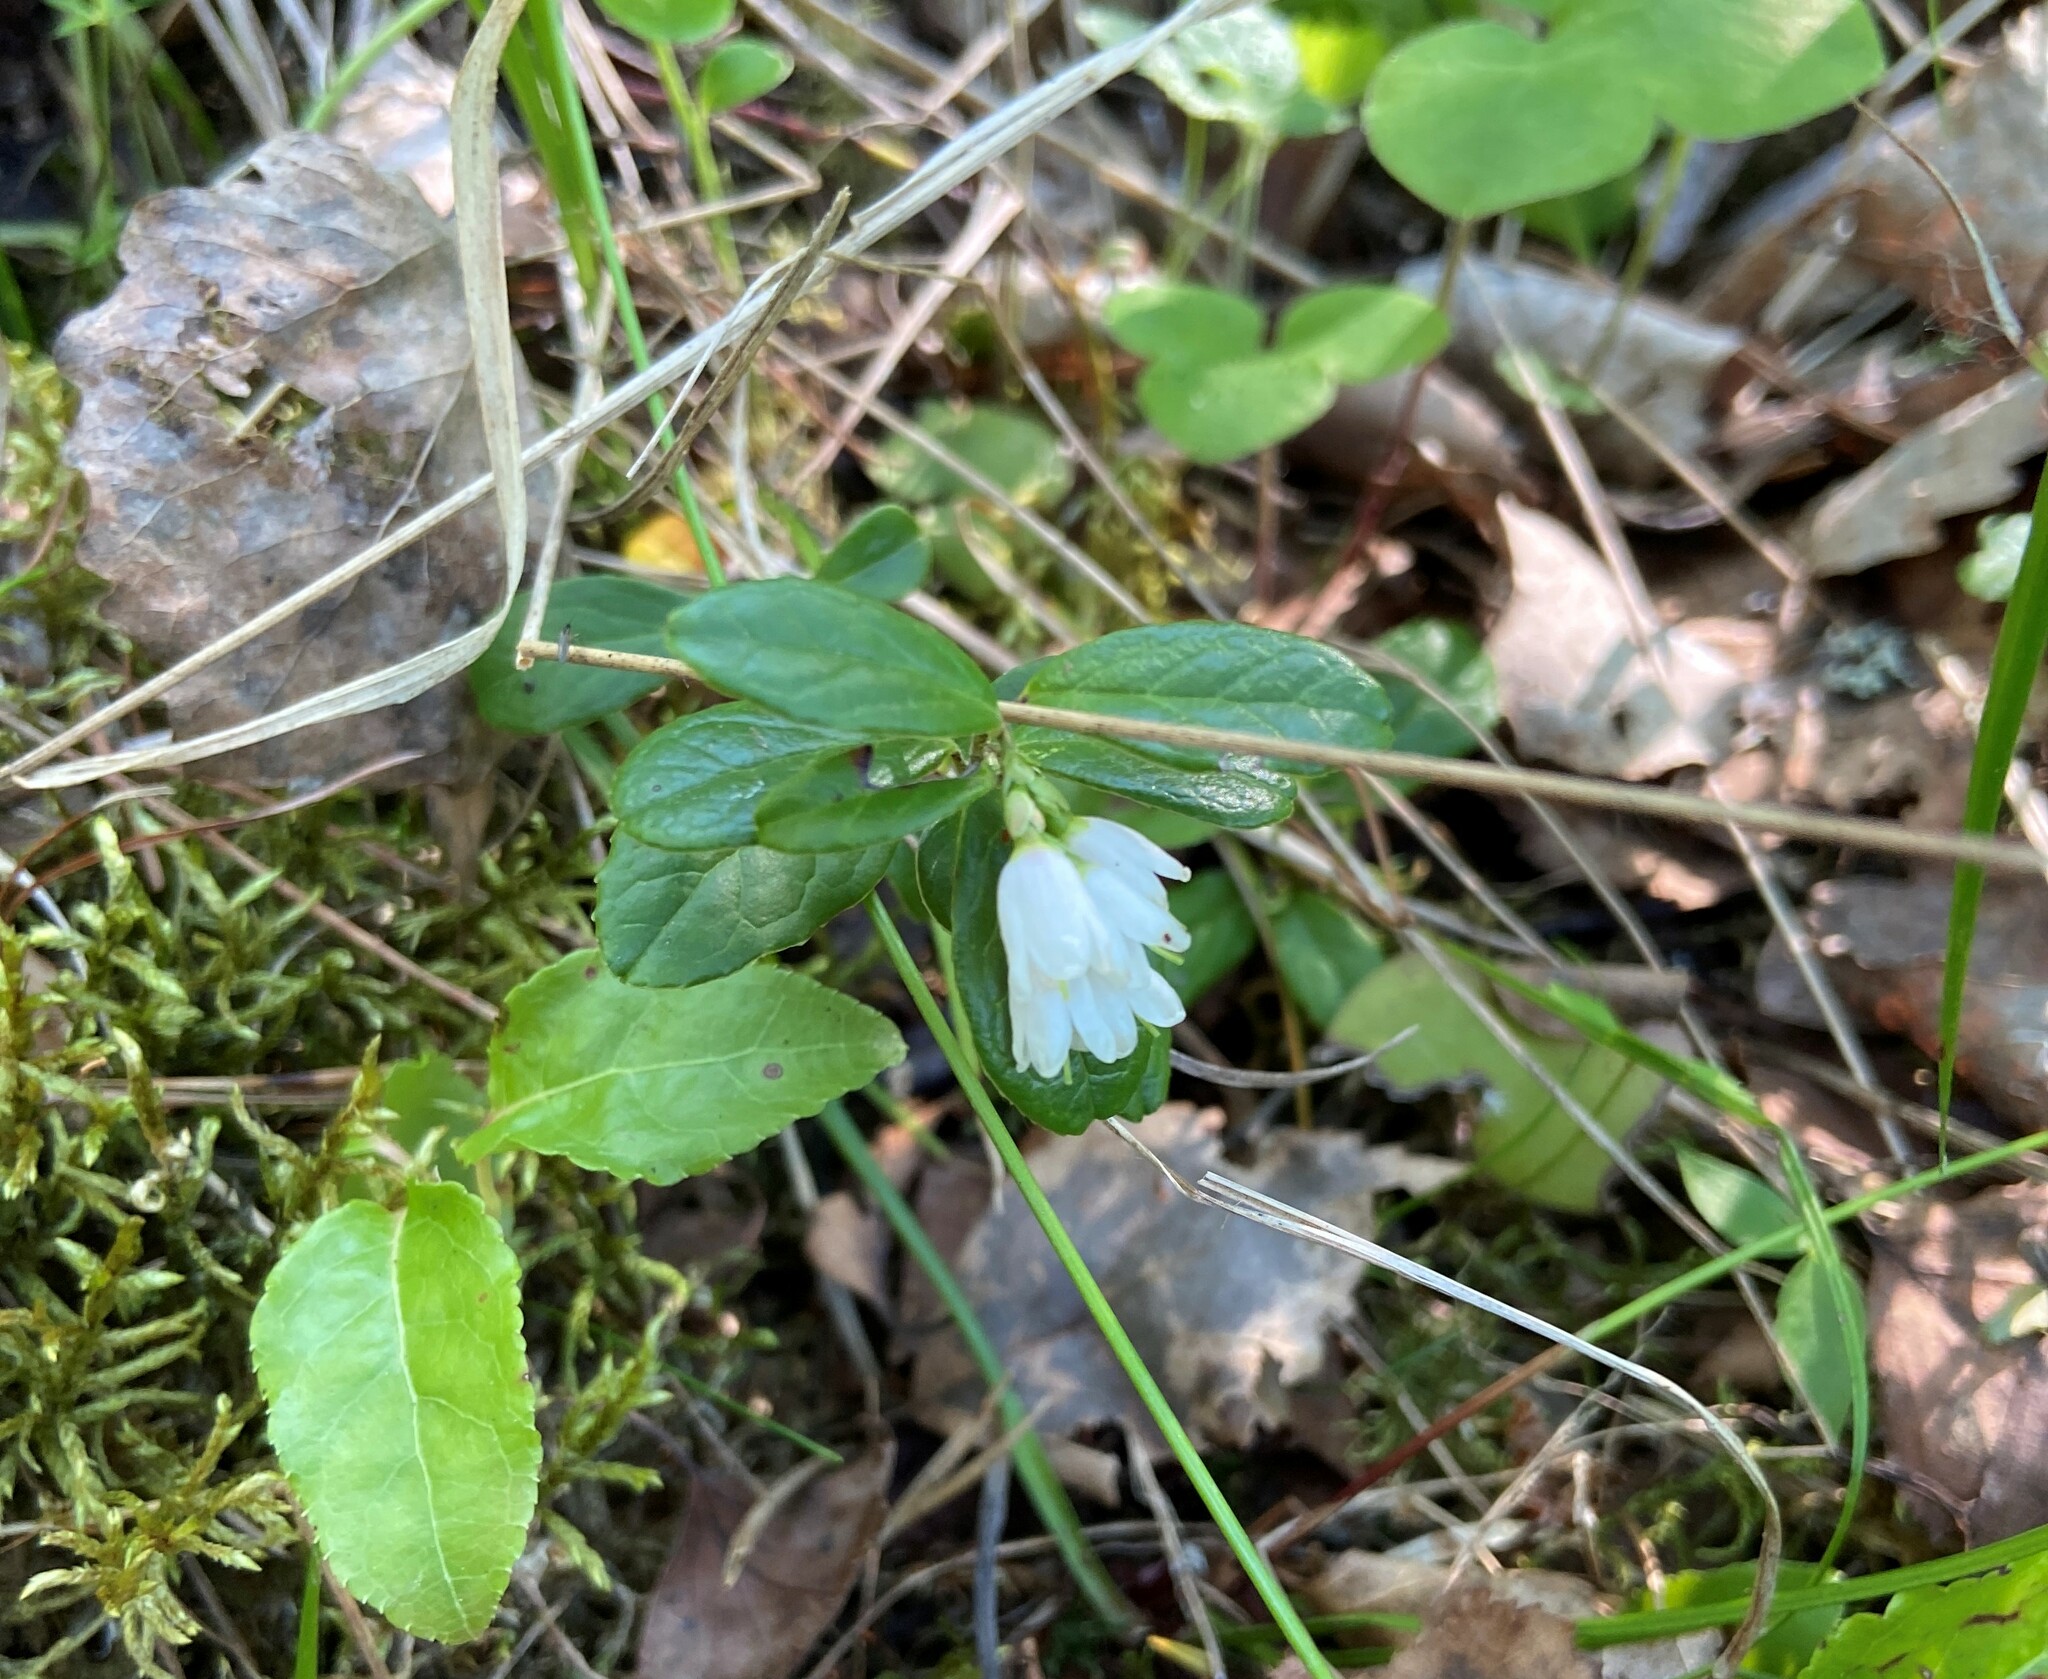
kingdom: Plantae
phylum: Tracheophyta
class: Magnoliopsida
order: Ericales
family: Ericaceae
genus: Vaccinium
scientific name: Vaccinium vitis-idaea
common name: Cowberry
